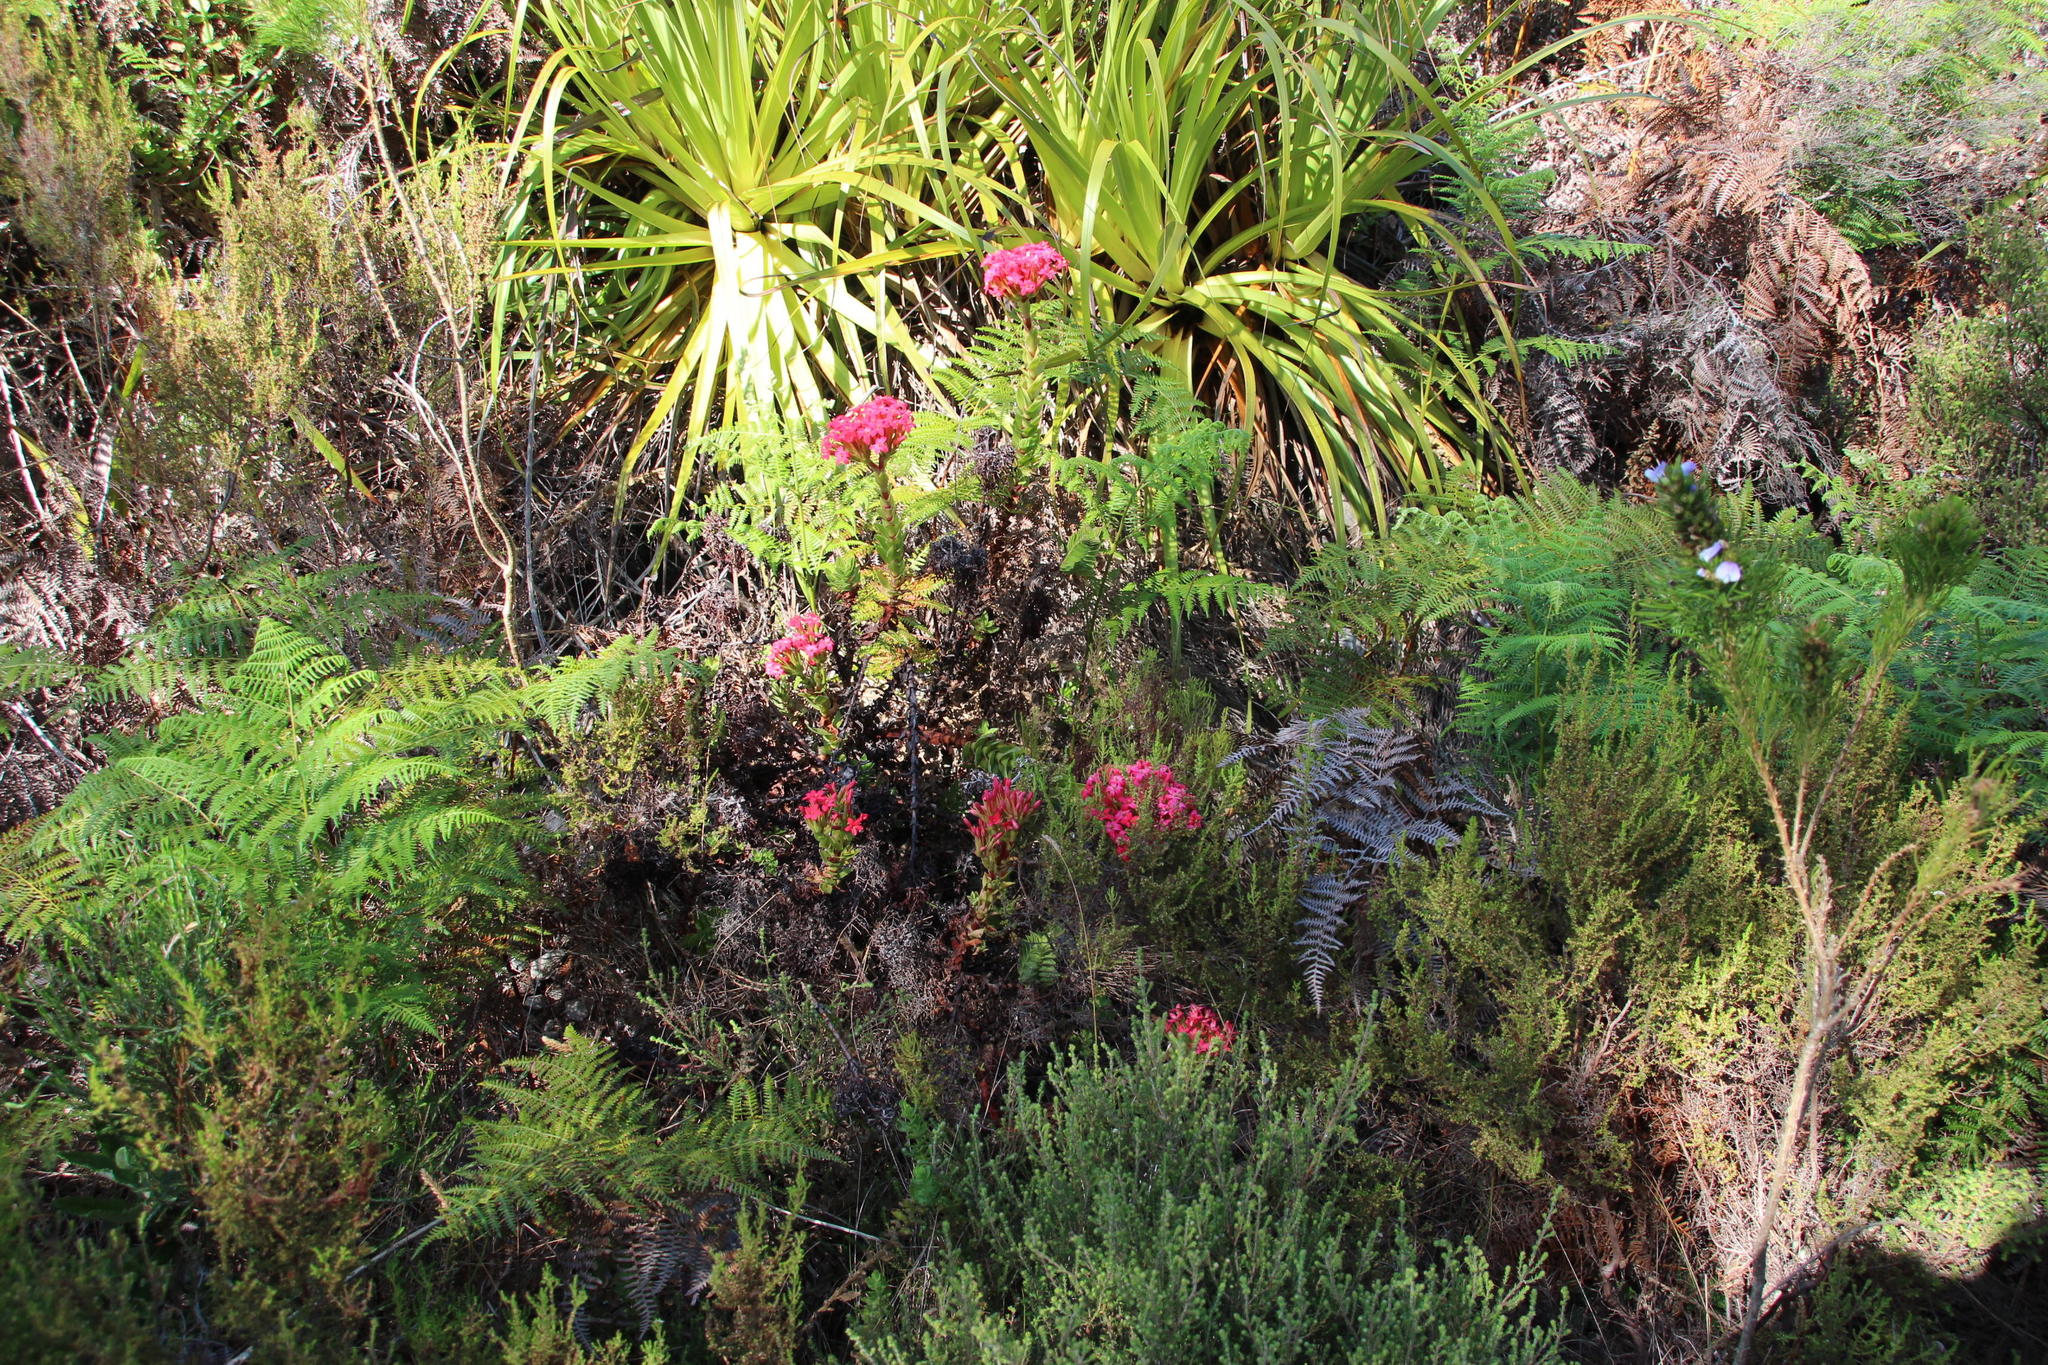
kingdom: Plantae
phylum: Tracheophyta
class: Magnoliopsida
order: Saxifragales
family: Crassulaceae
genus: Crassula
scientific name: Crassula coccinea
